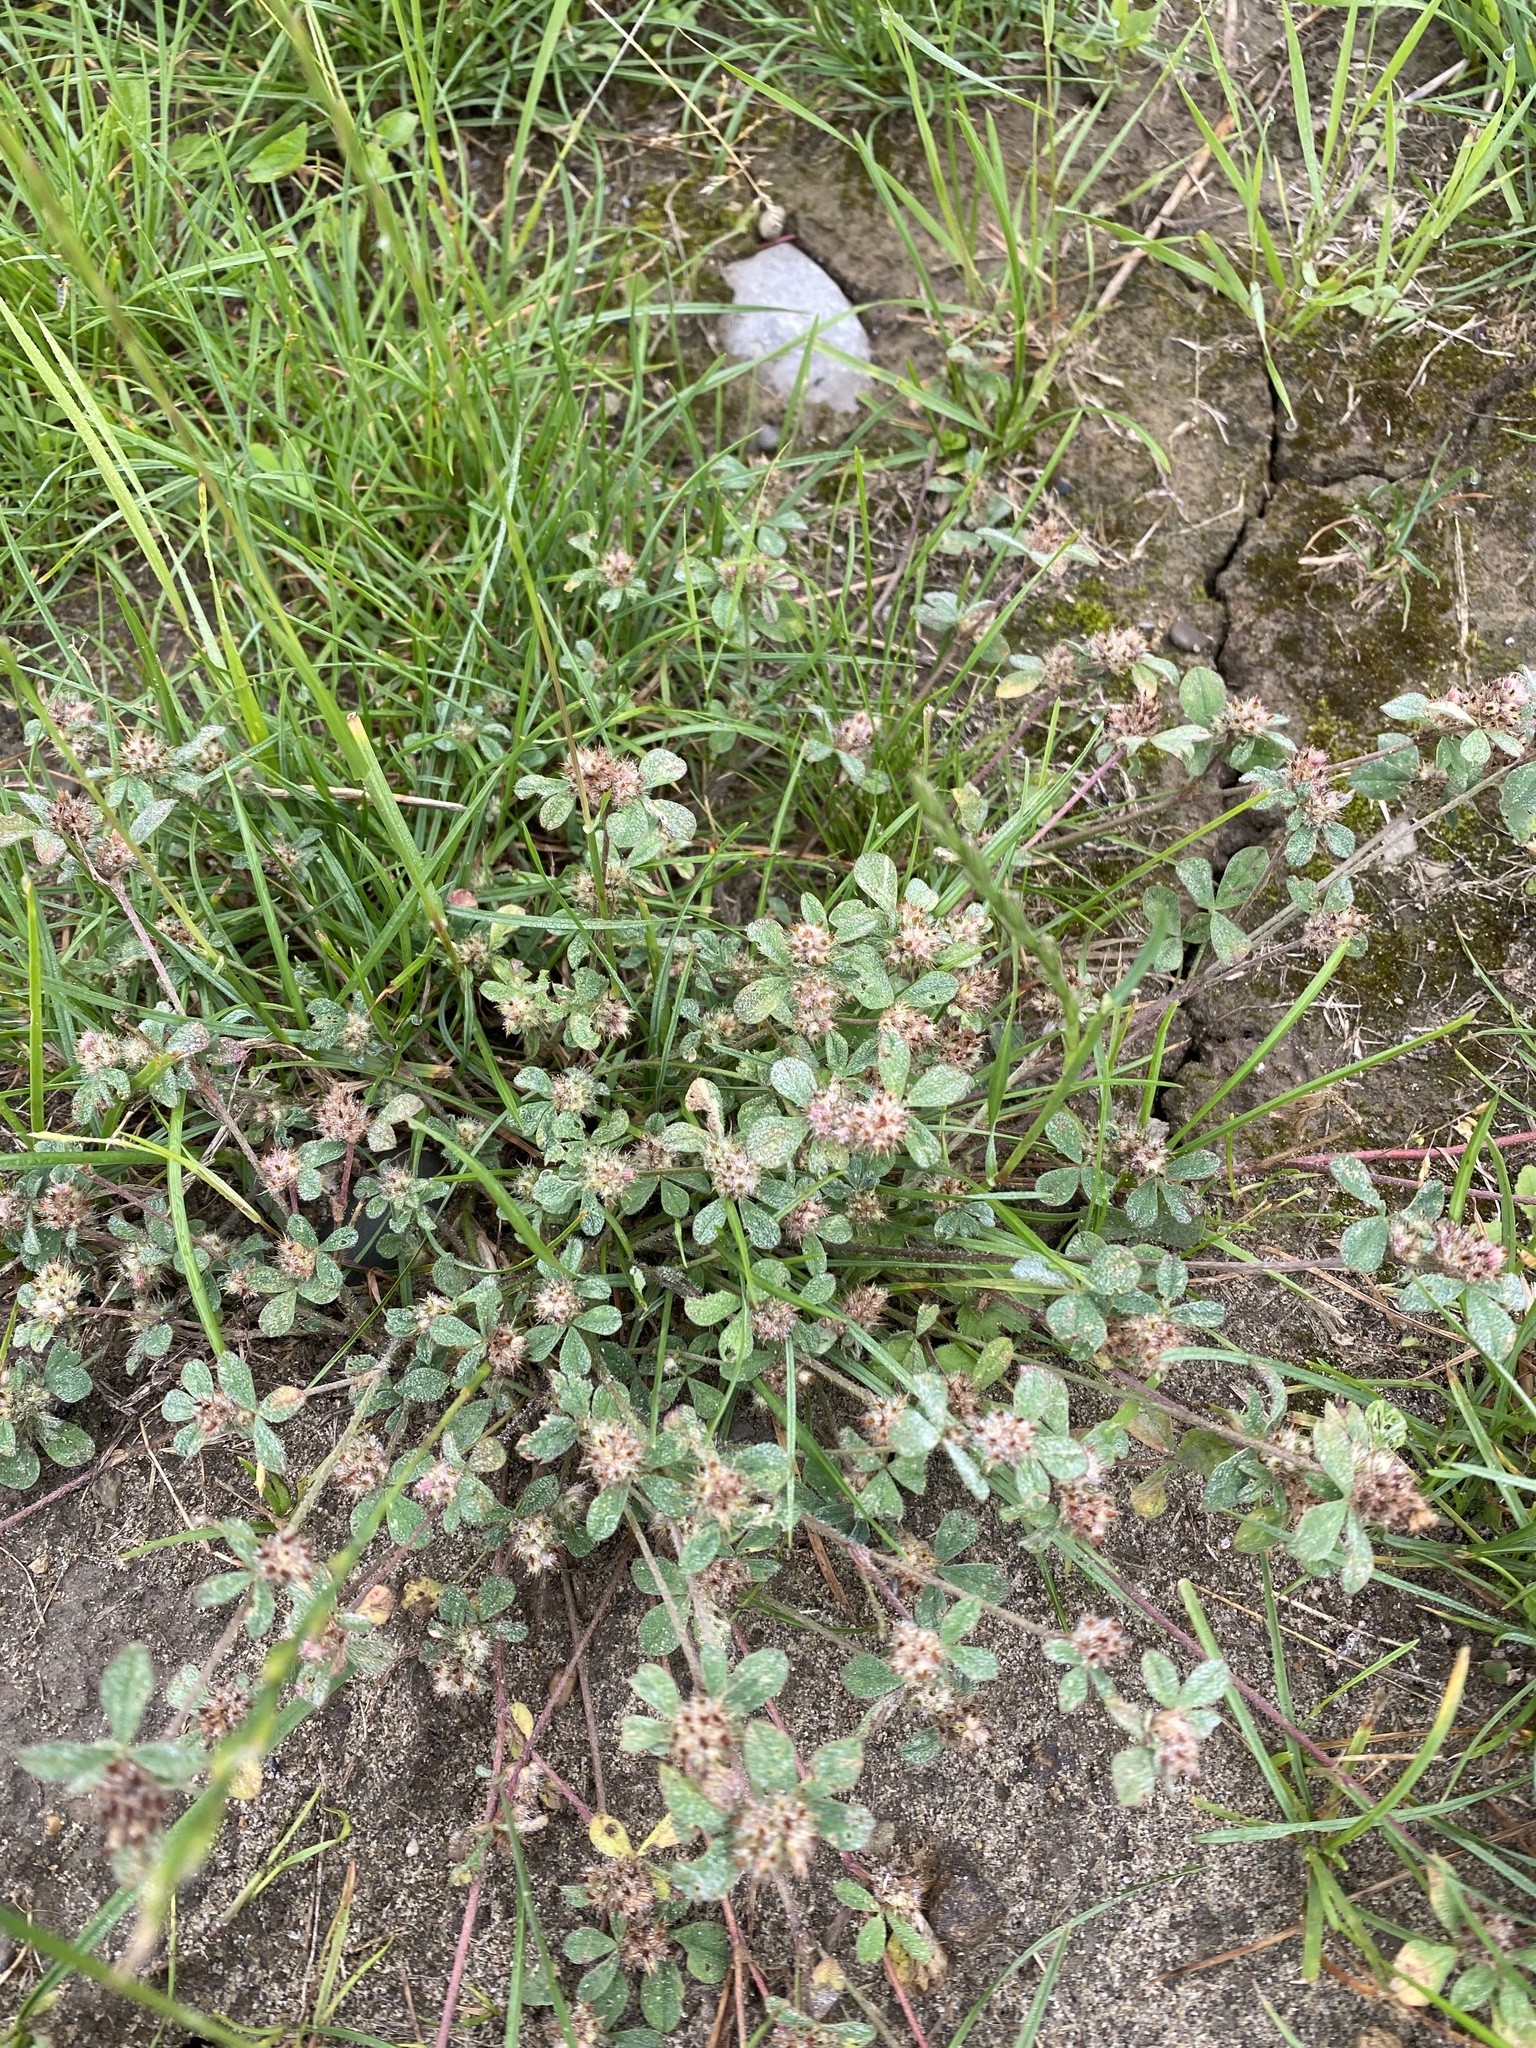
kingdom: Plantae
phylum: Tracheophyta
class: Magnoliopsida
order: Fabales
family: Fabaceae
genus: Trifolium
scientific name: Trifolium striatum
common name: Knotted clover
